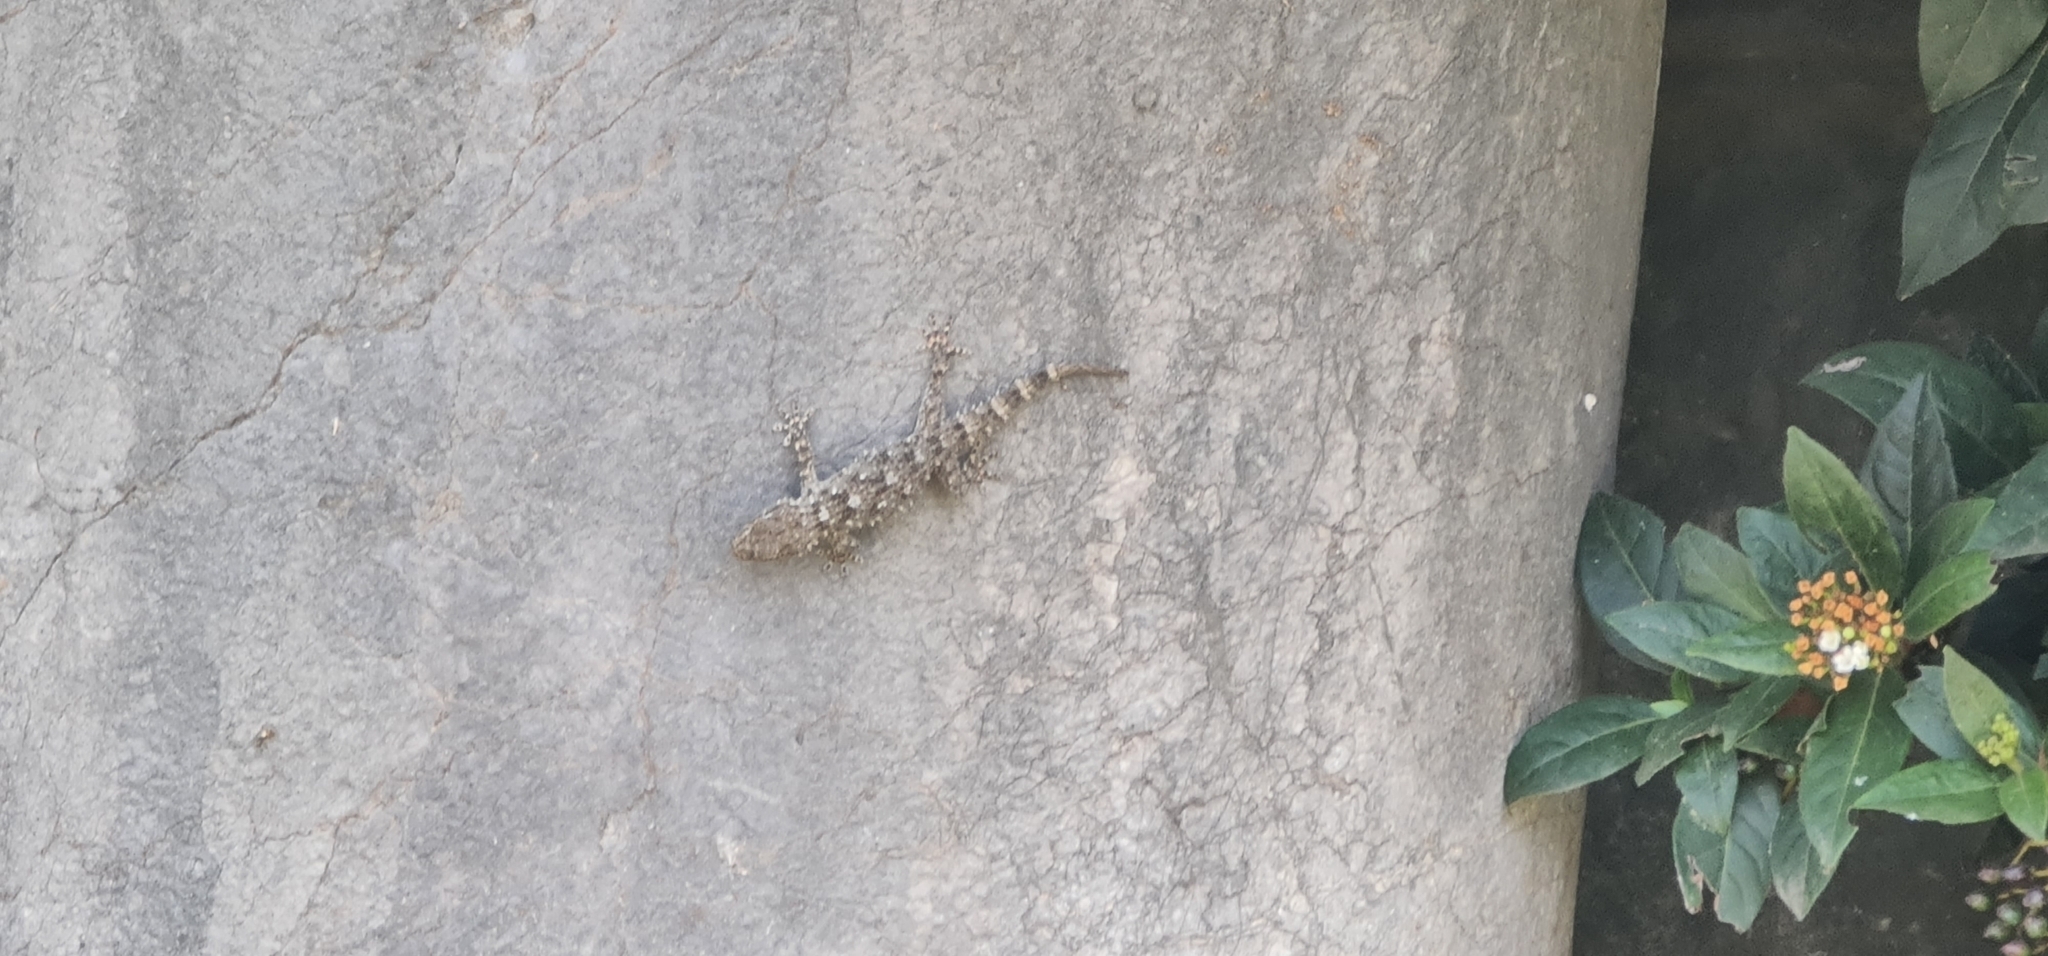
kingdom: Animalia
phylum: Chordata
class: Squamata
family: Phyllodactylidae
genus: Tarentola
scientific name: Tarentola mauritanica
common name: Moorish gecko
